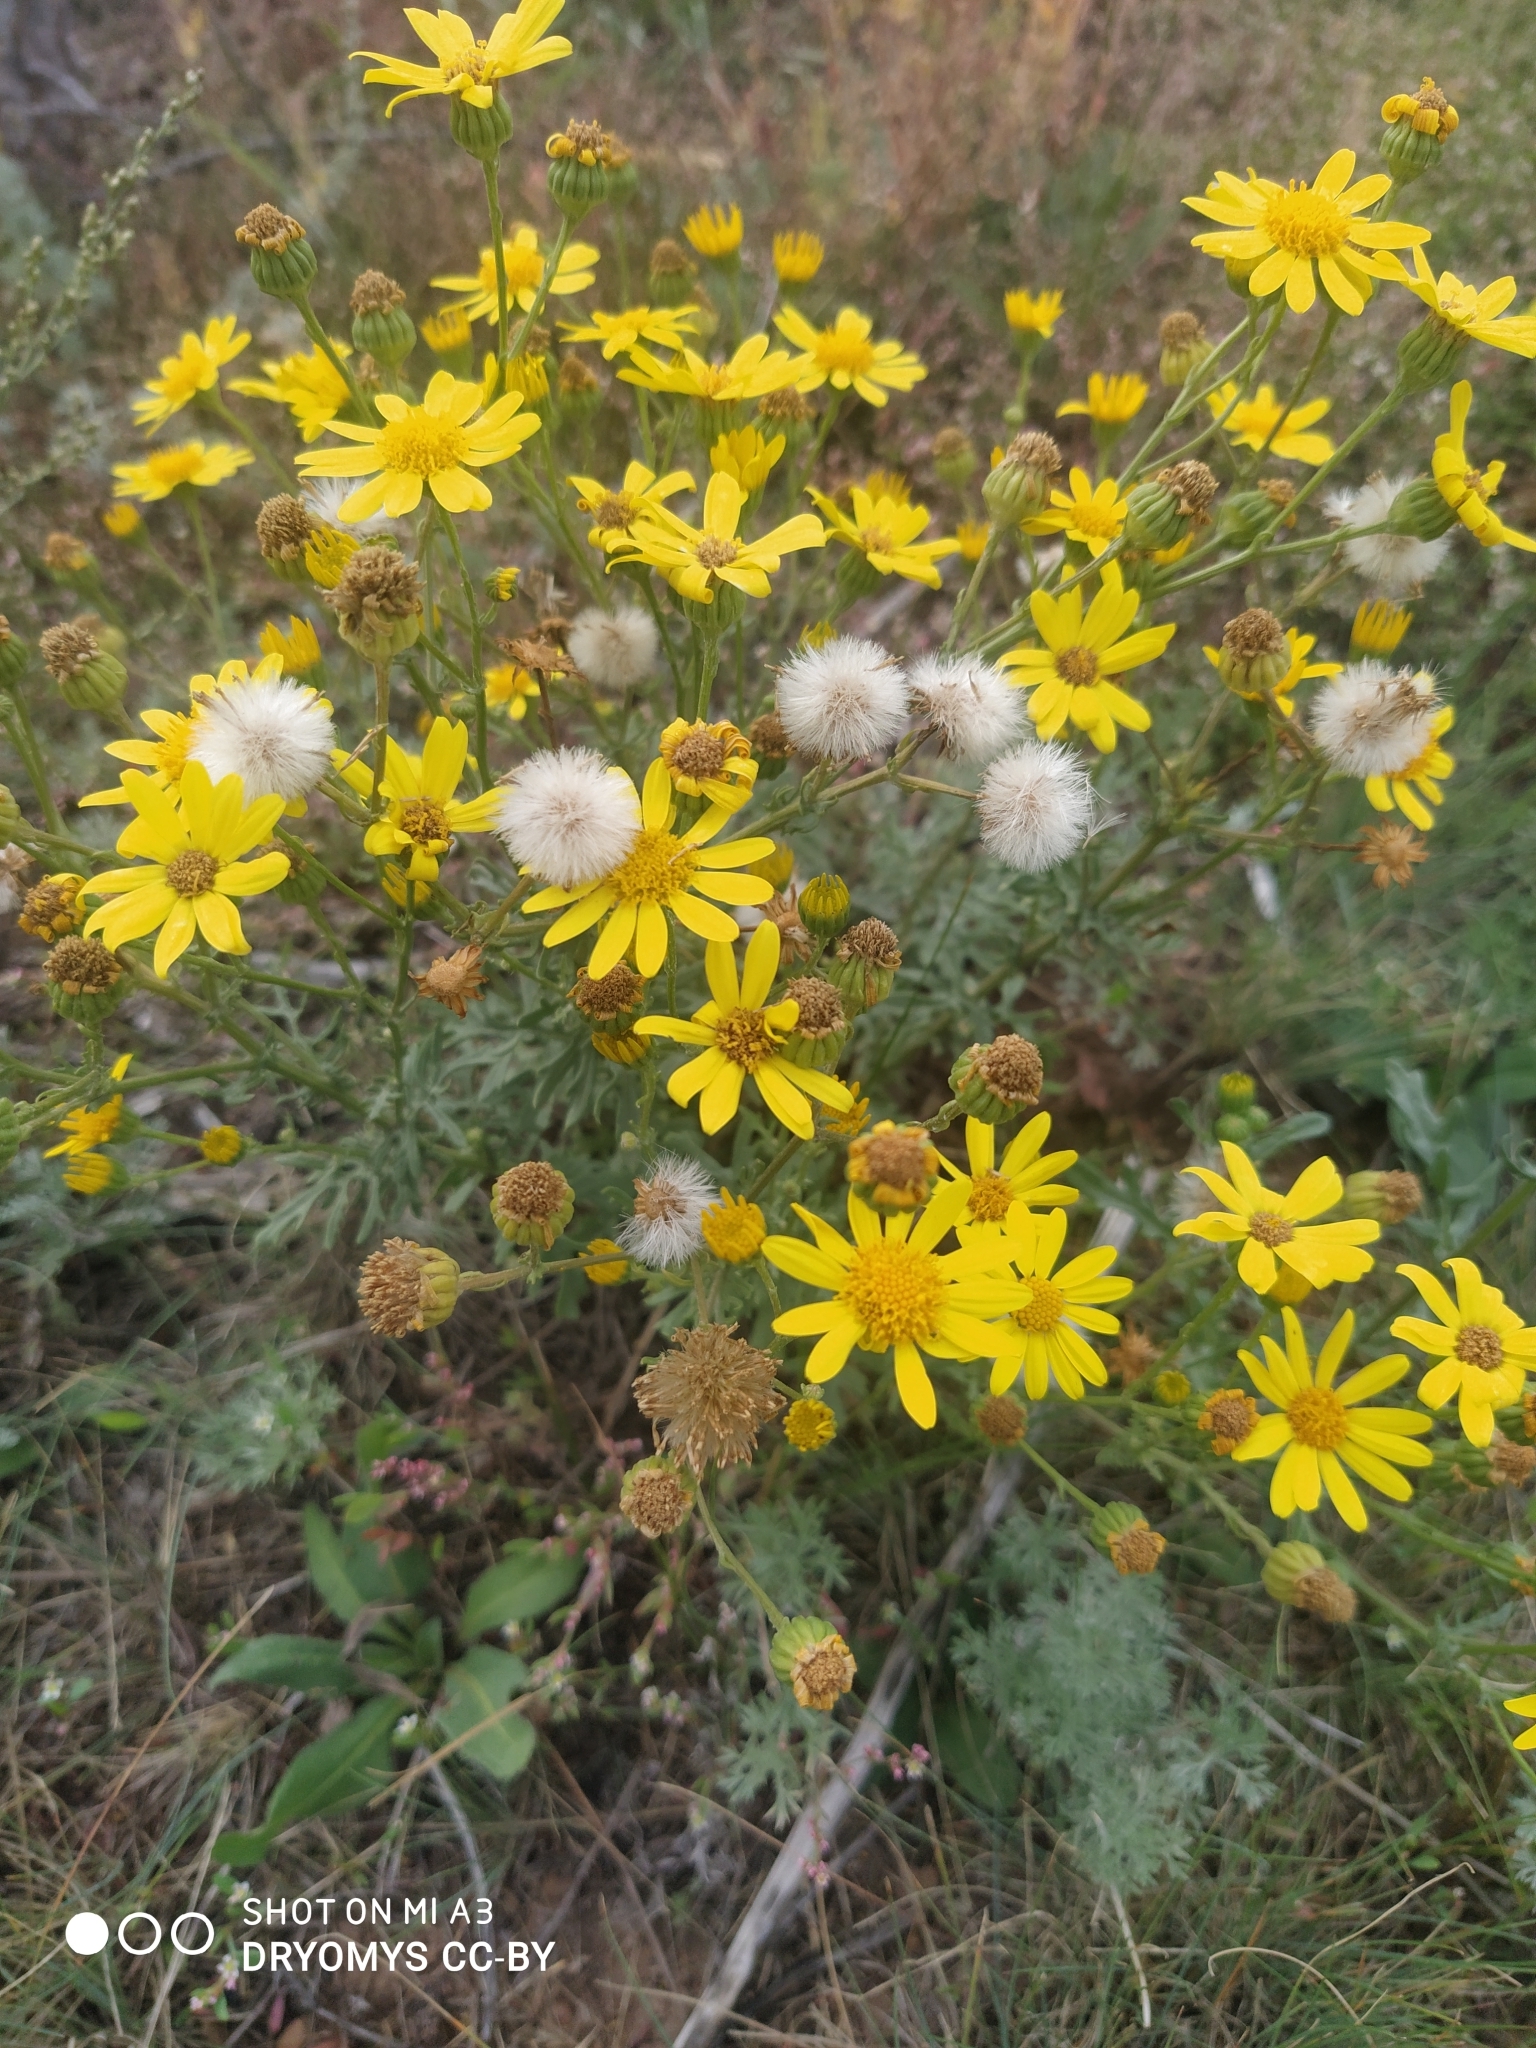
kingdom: Plantae
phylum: Tracheophyta
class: Magnoliopsida
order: Asterales
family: Asteraceae
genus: Jacobaea
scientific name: Jacobaea vulgaris
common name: Stinking willie
